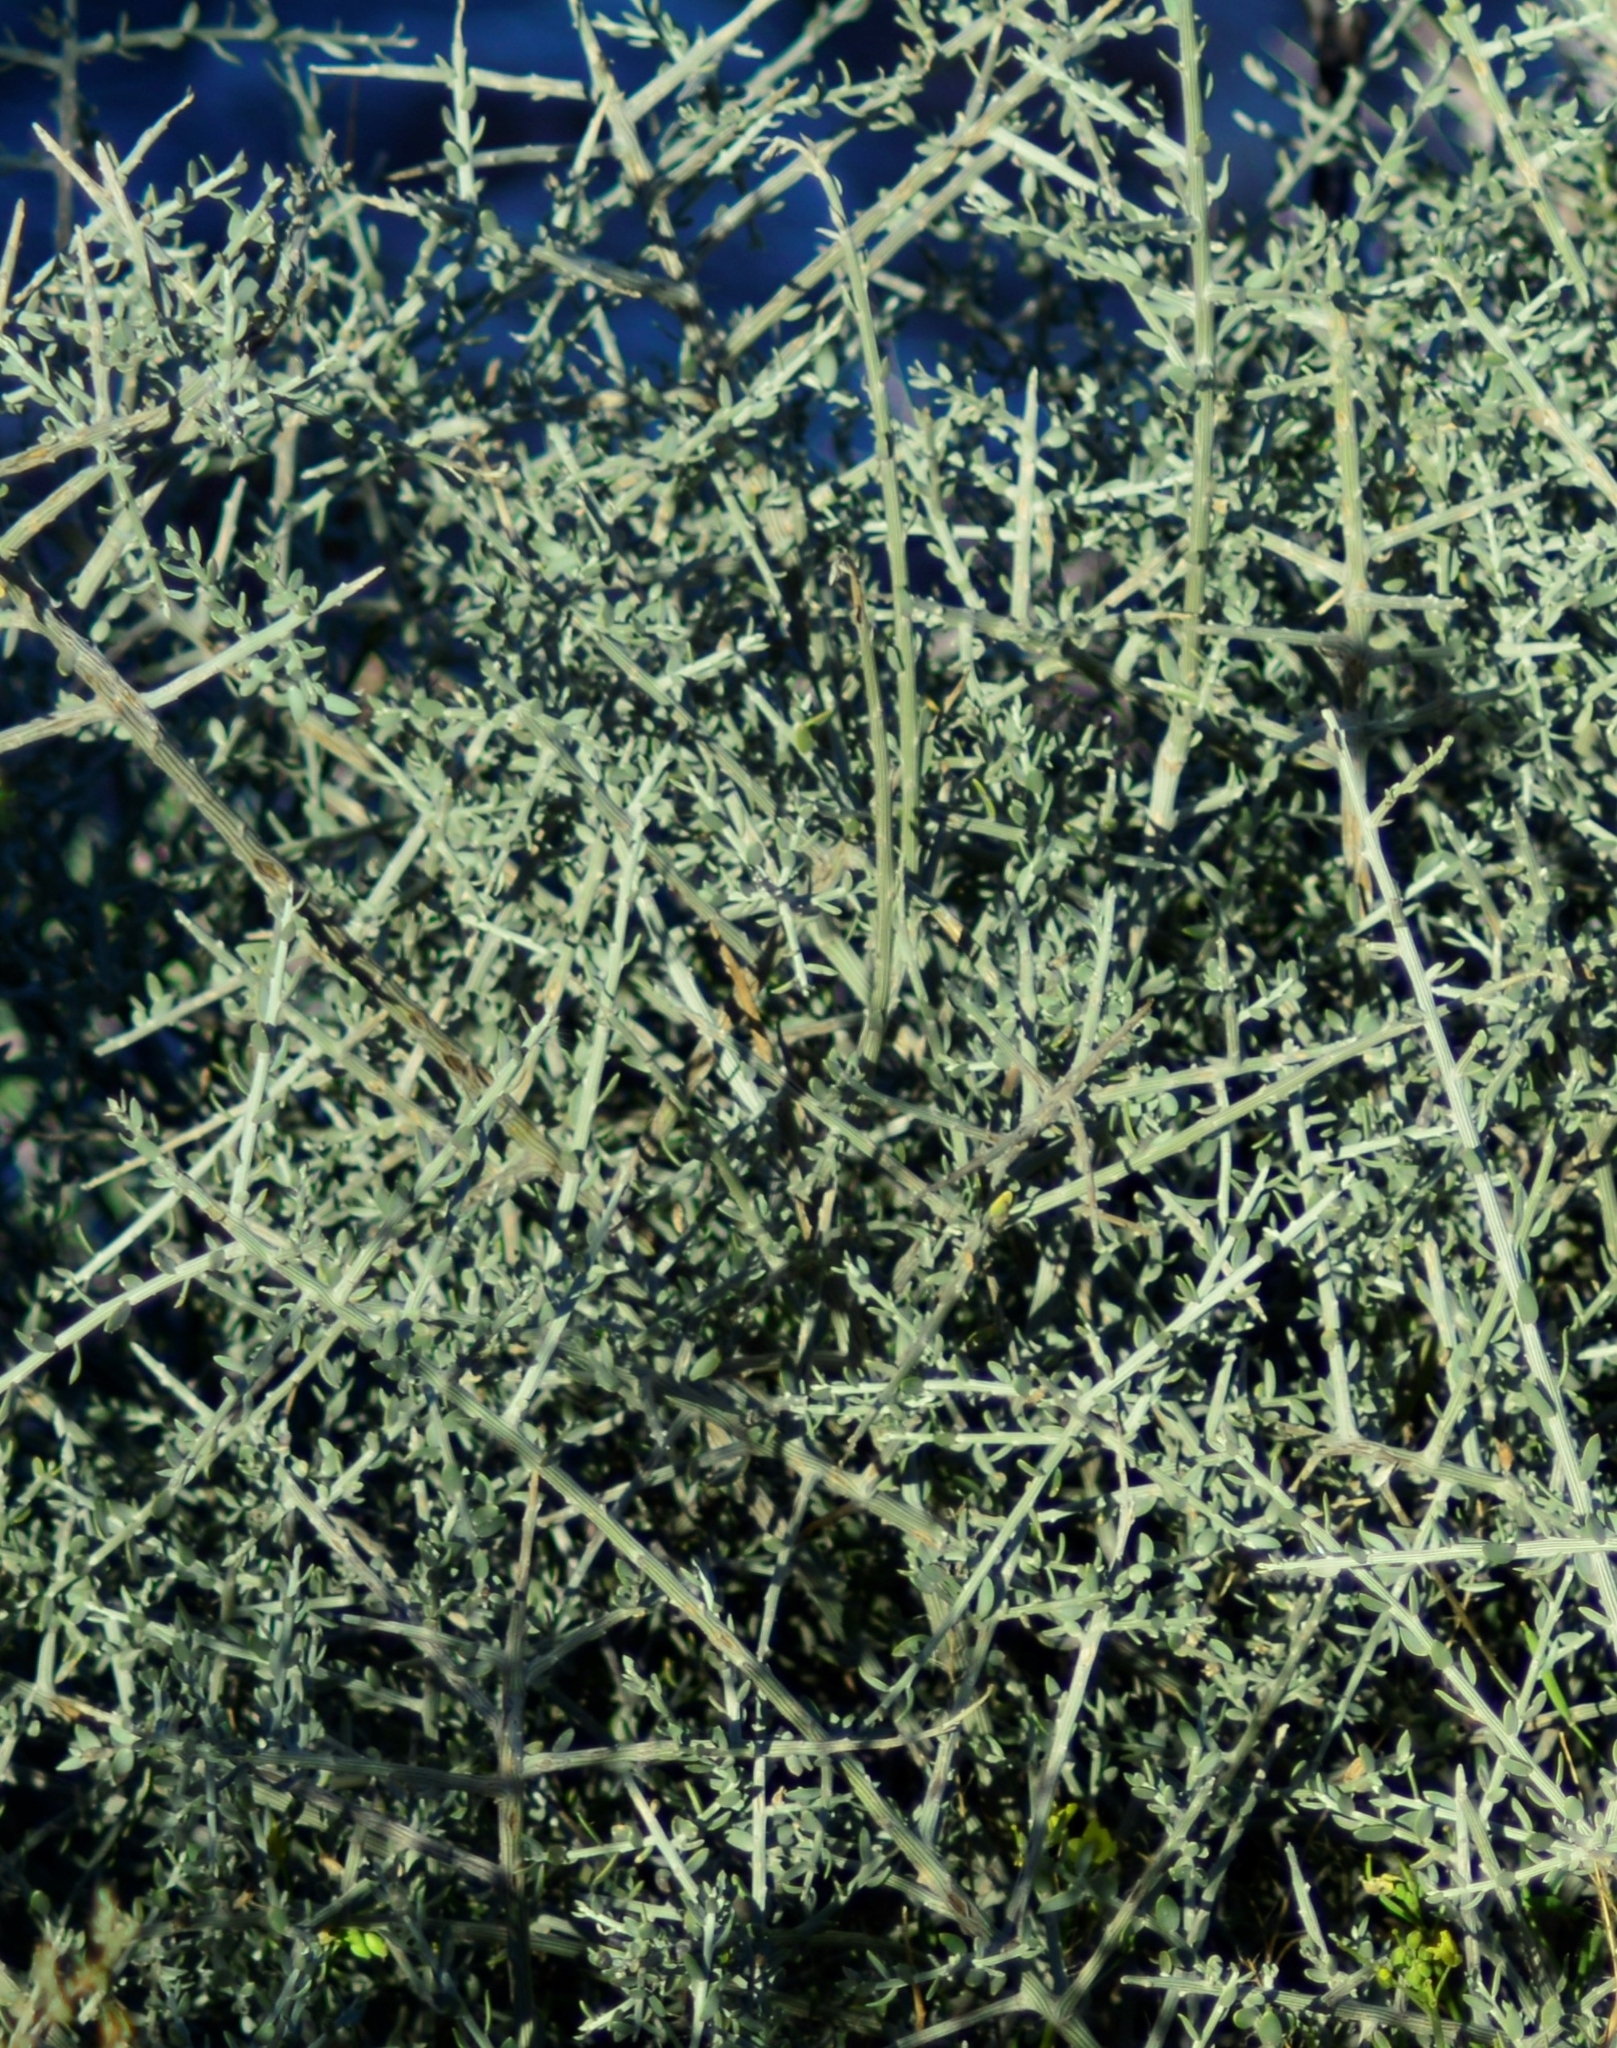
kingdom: Plantae
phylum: Tracheophyta
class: Magnoliopsida
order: Asterales
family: Asteraceae
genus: Cyclolepis
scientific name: Cyclolepis genistoides
